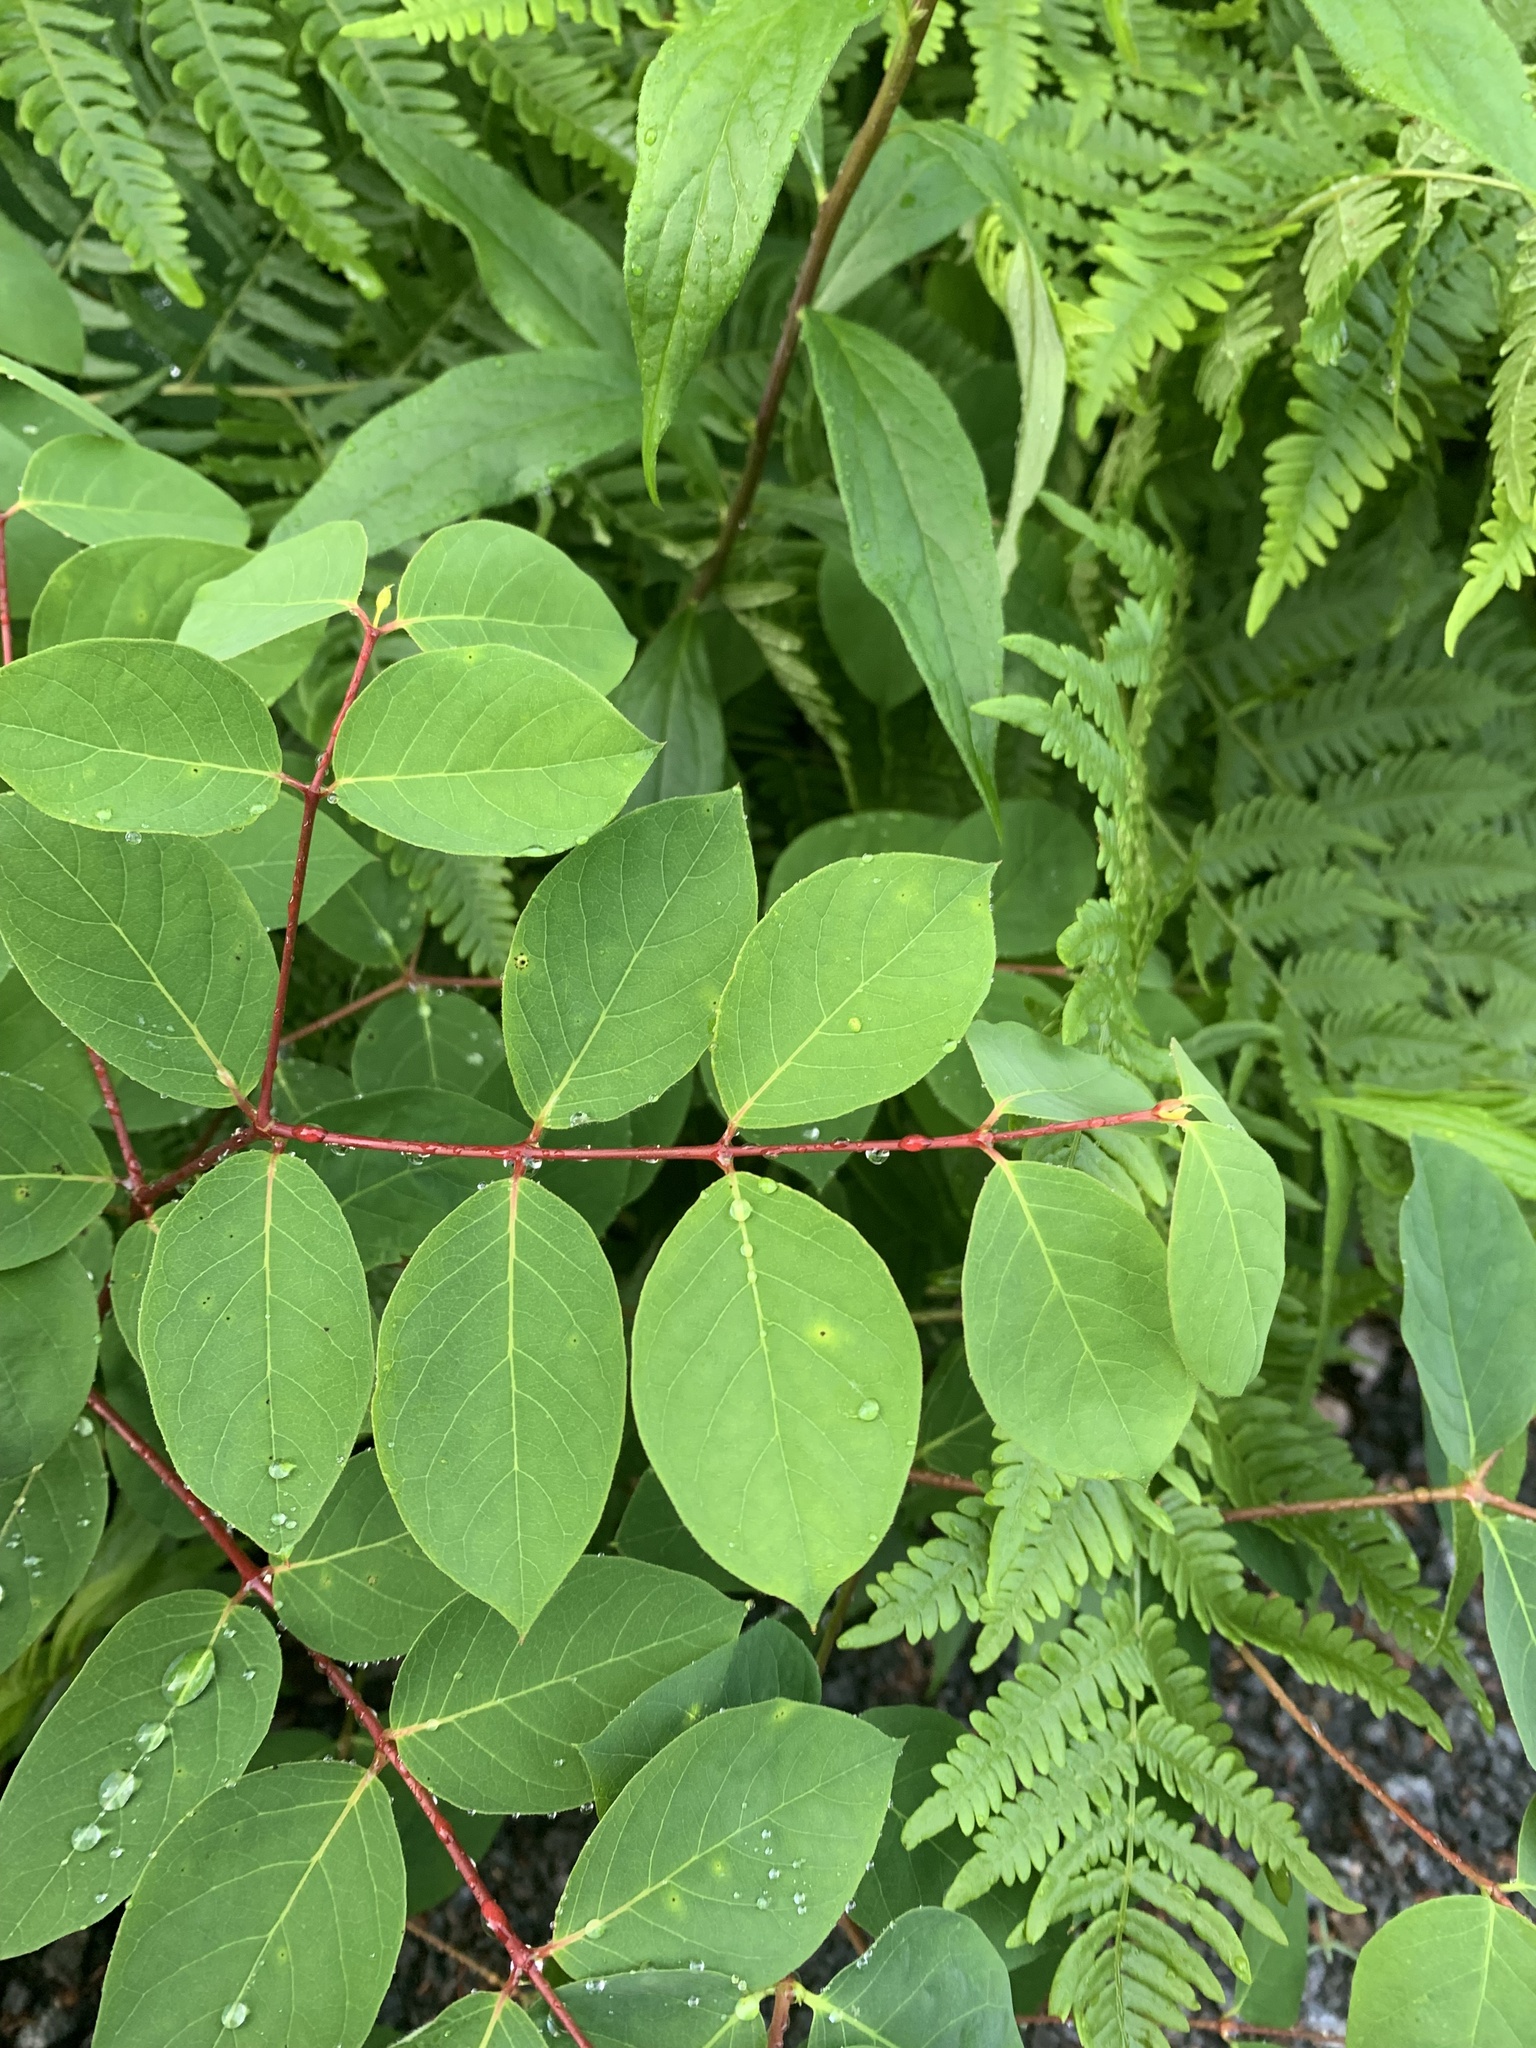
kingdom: Plantae
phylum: Tracheophyta
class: Magnoliopsida
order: Gentianales
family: Apocynaceae
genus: Apocynum
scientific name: Apocynum androsaemifolium
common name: Spreading dogbane
